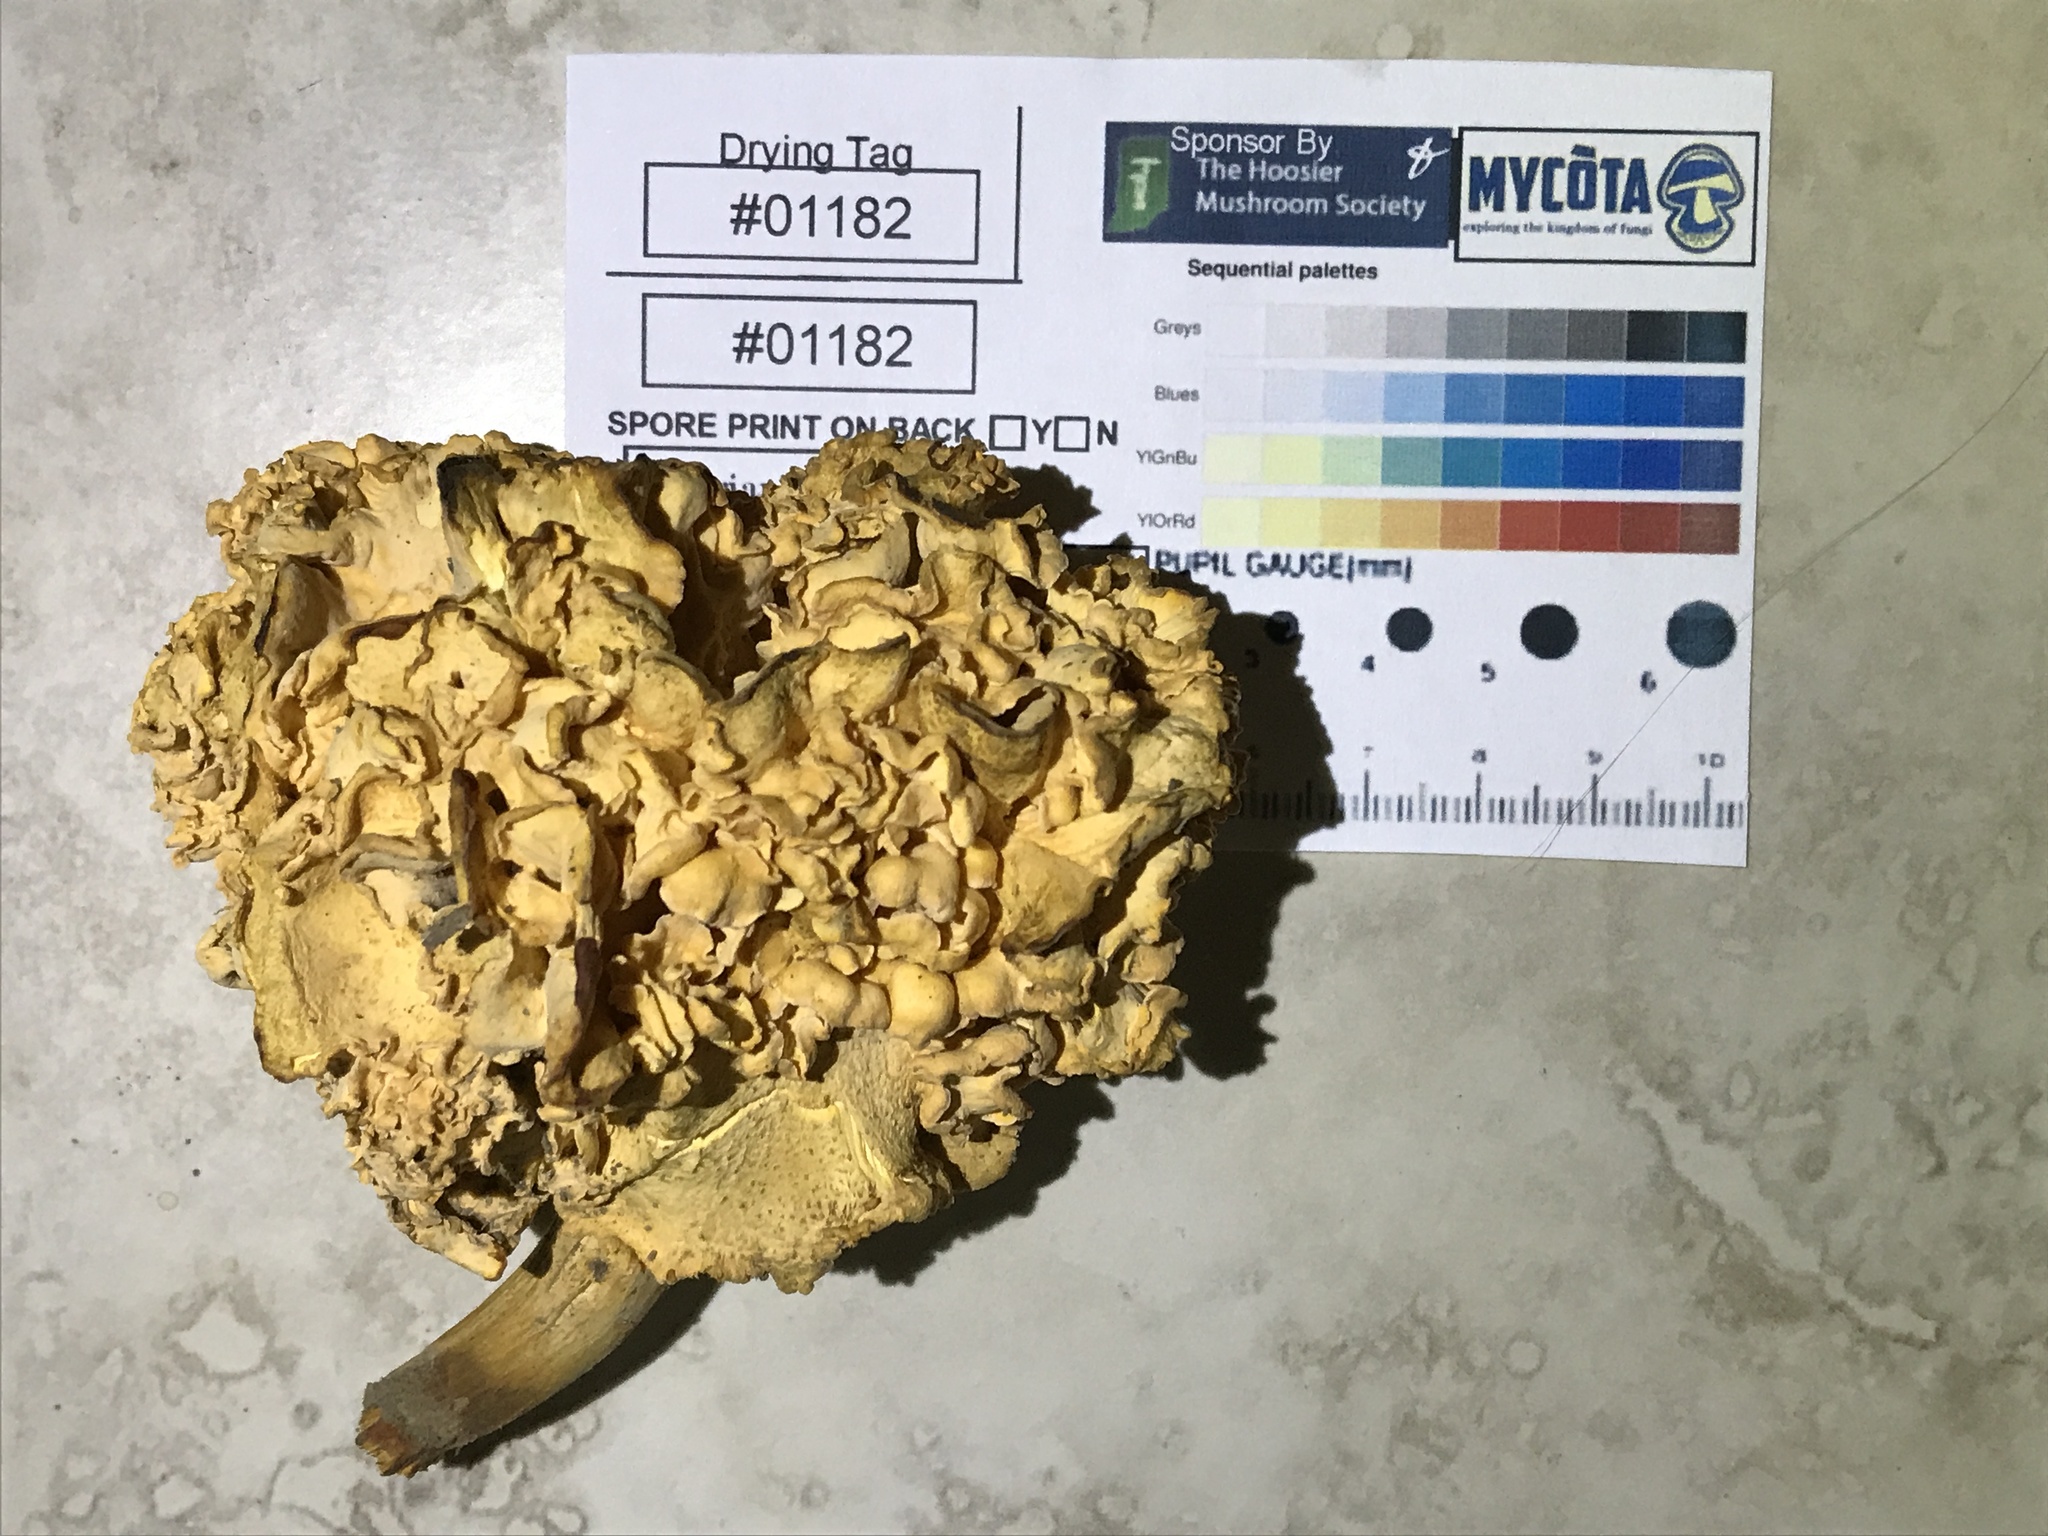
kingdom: Fungi
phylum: Basidiomycota
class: Agaricomycetes
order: Cantharellales
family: Hydnaceae
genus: Cantharellus
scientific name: Cantharellus flavolateritius
